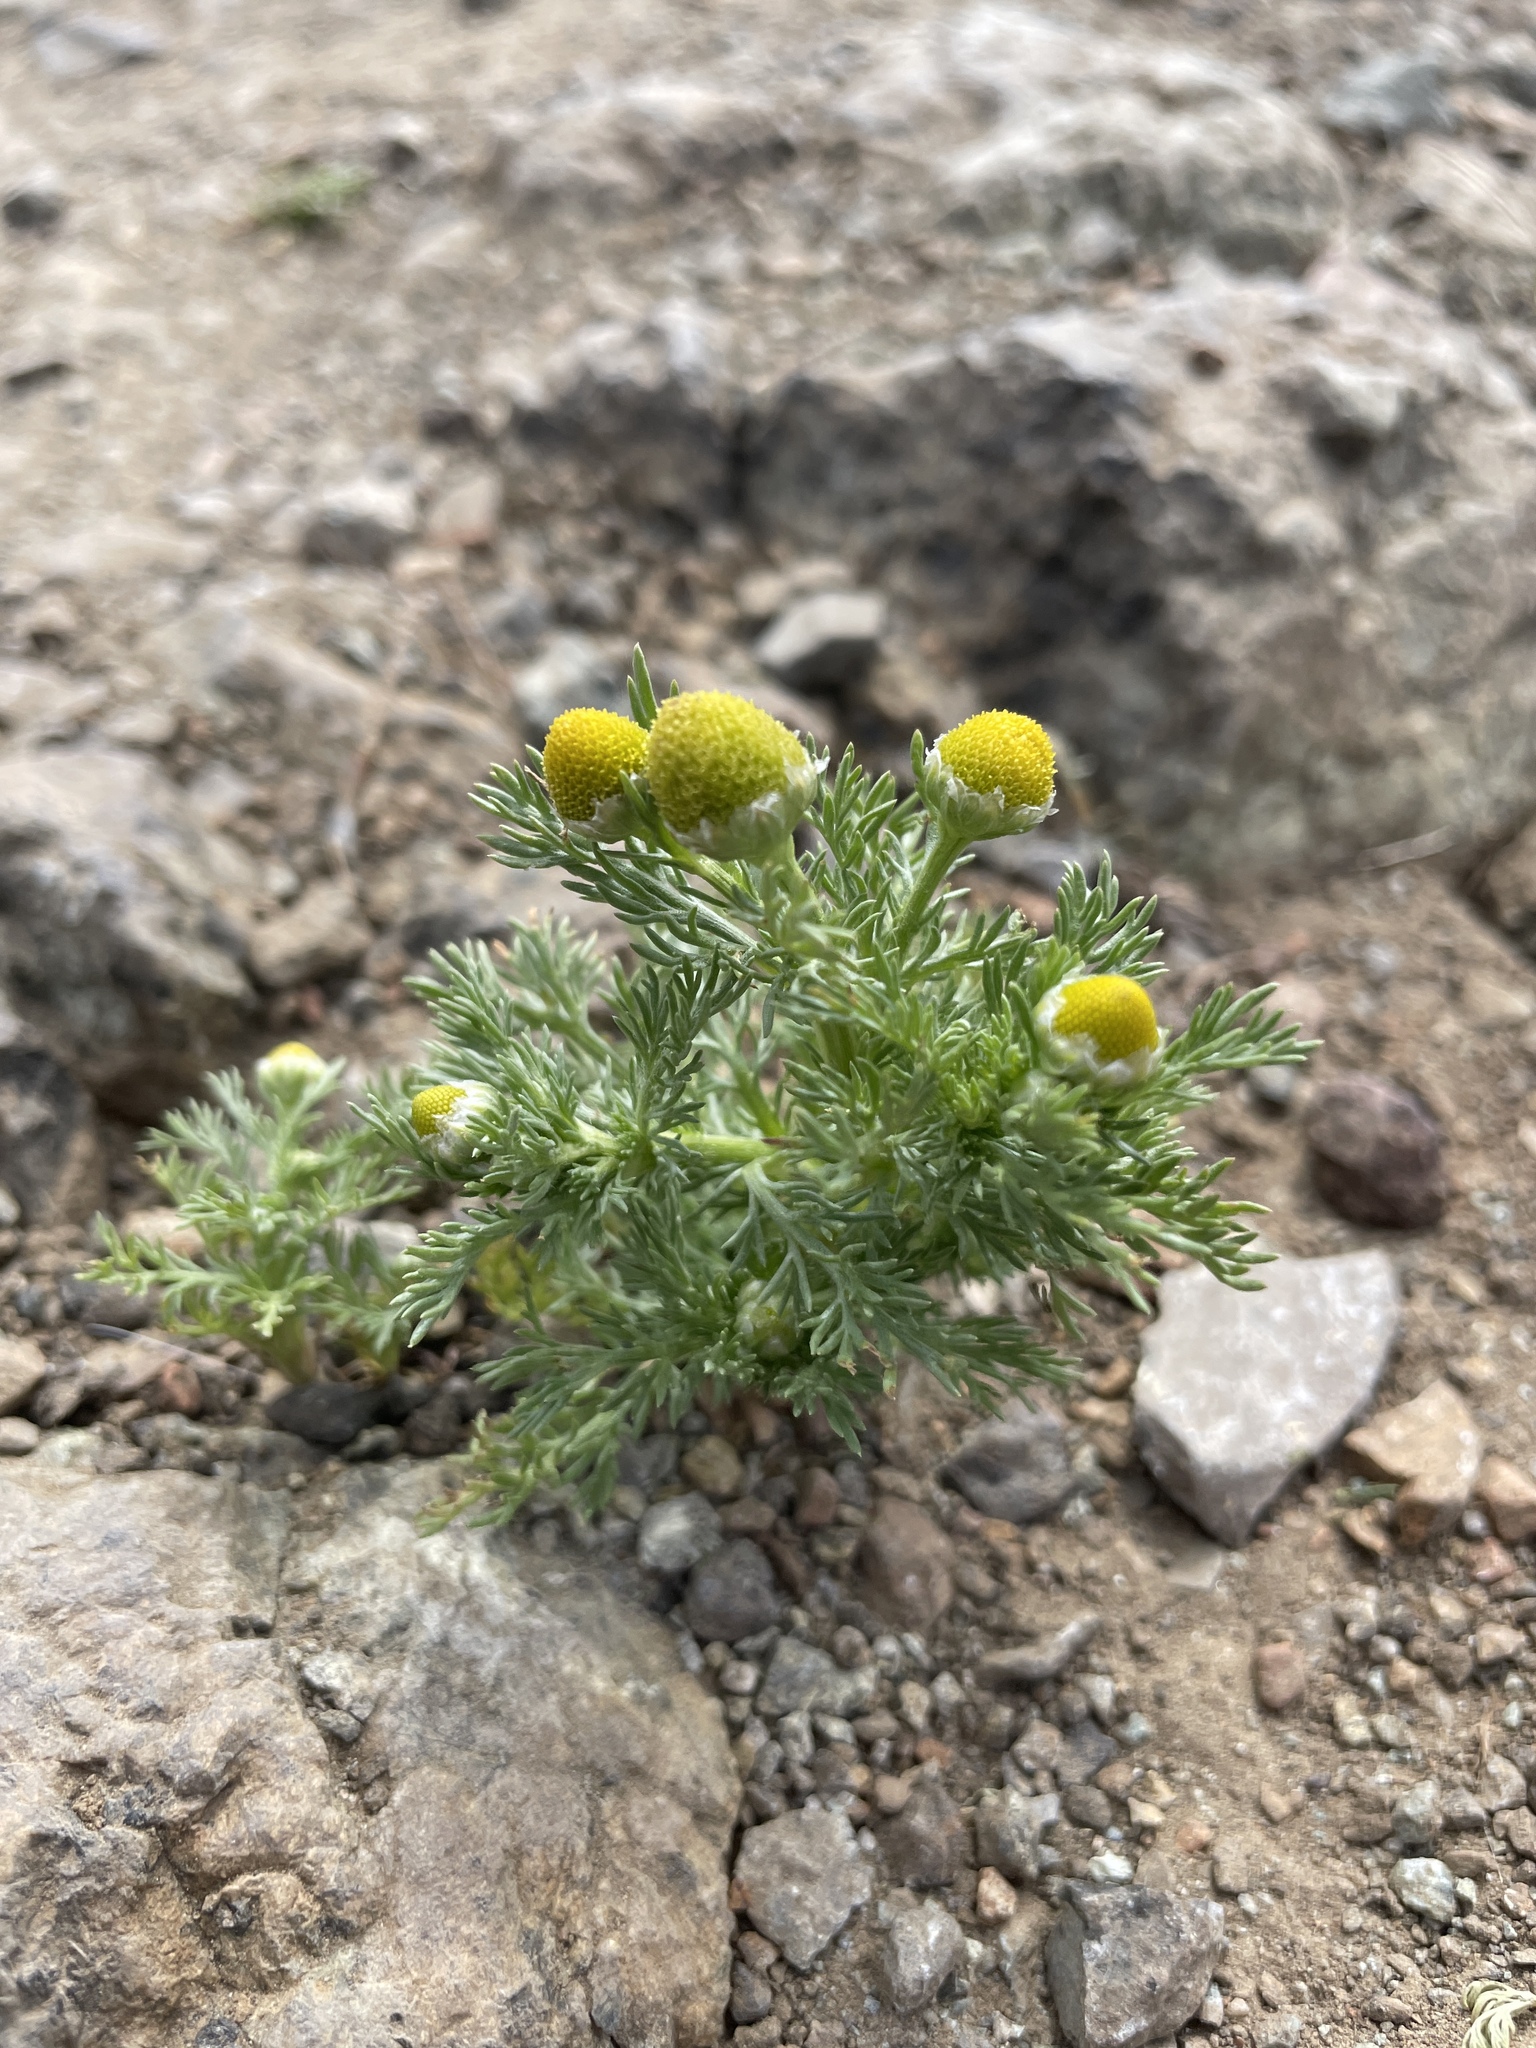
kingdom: Plantae
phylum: Tracheophyta
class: Magnoliopsida
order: Asterales
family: Asteraceae
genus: Matricaria
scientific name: Matricaria discoidea
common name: Disc mayweed
